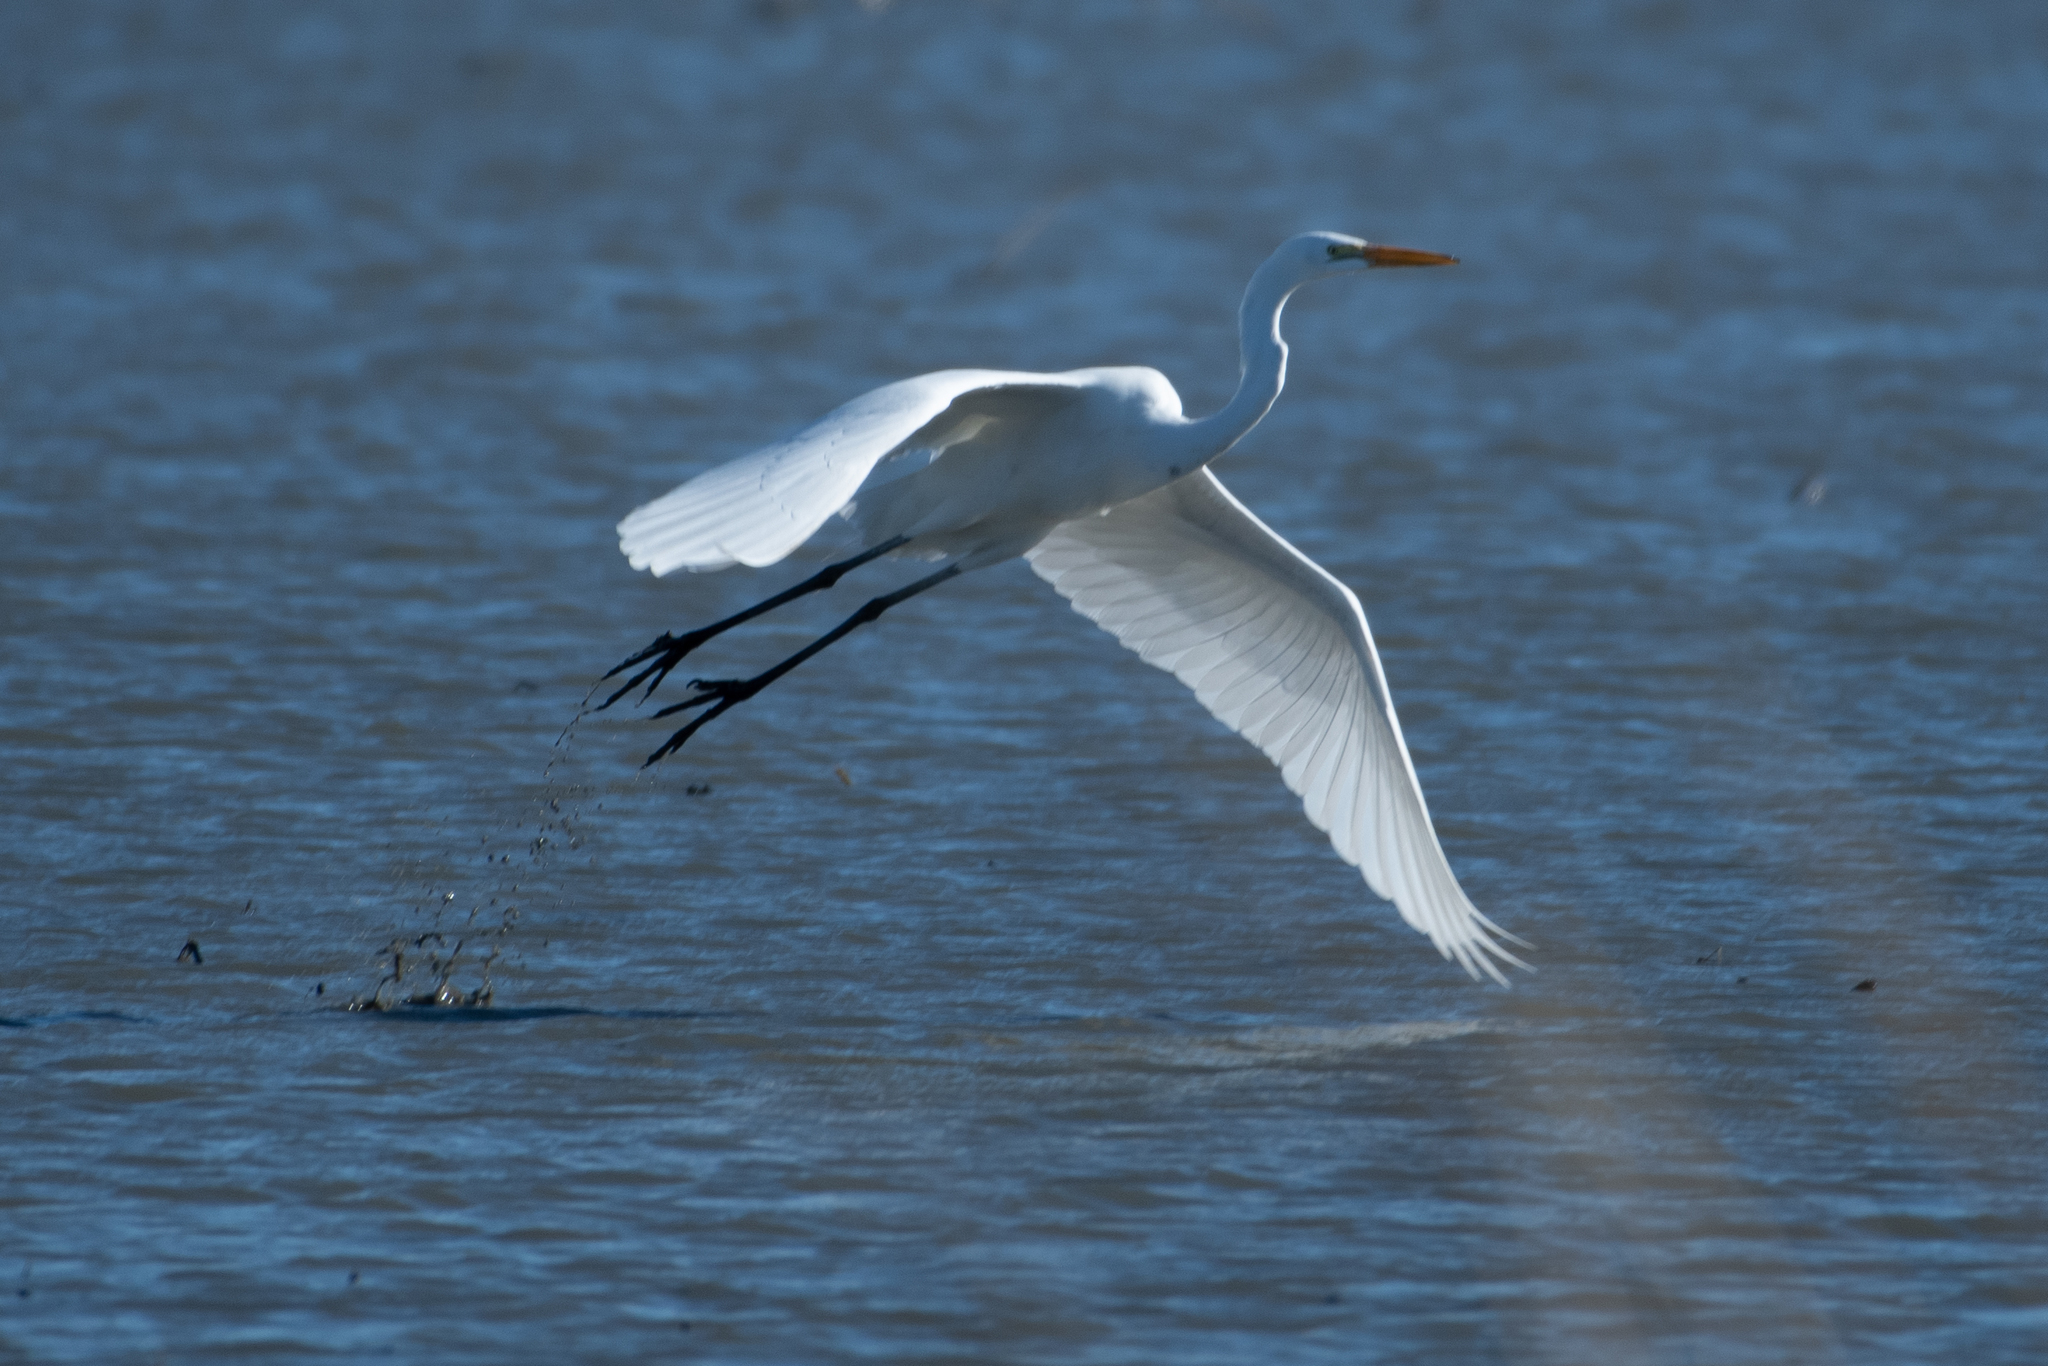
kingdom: Animalia
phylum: Chordata
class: Aves
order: Pelecaniformes
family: Ardeidae
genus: Ardea
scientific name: Ardea alba
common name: Great egret
